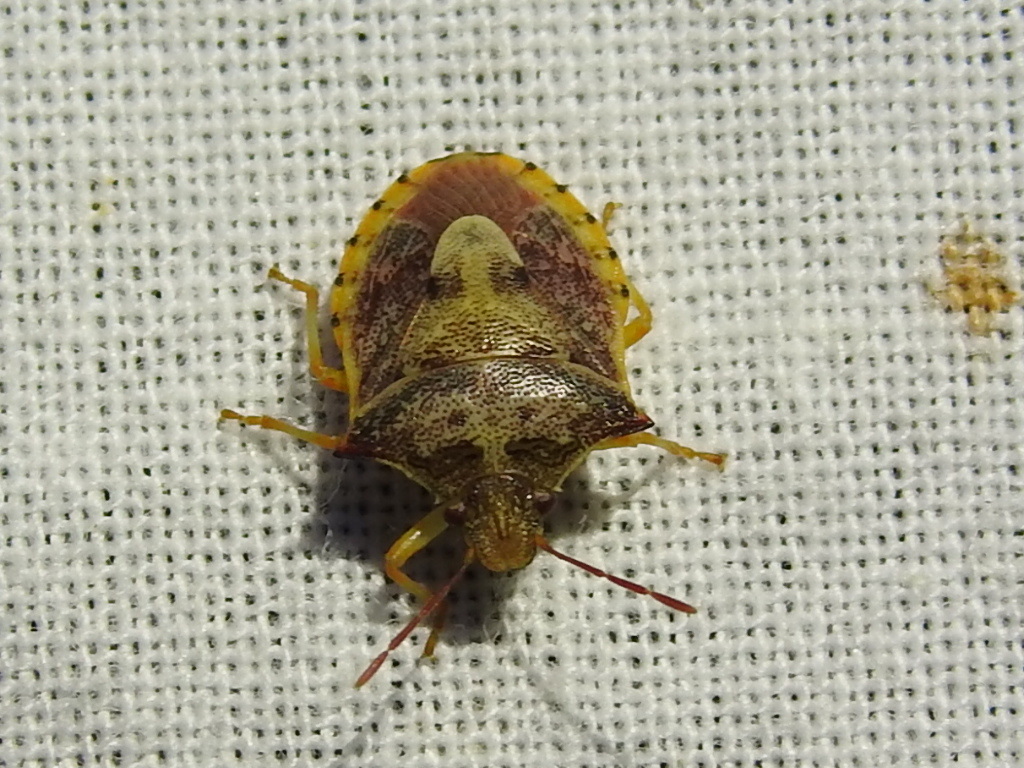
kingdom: Animalia
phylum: Arthropoda
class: Insecta
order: Hemiptera
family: Pentatomidae
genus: Dendrocoris
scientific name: Dendrocoris humeralis
